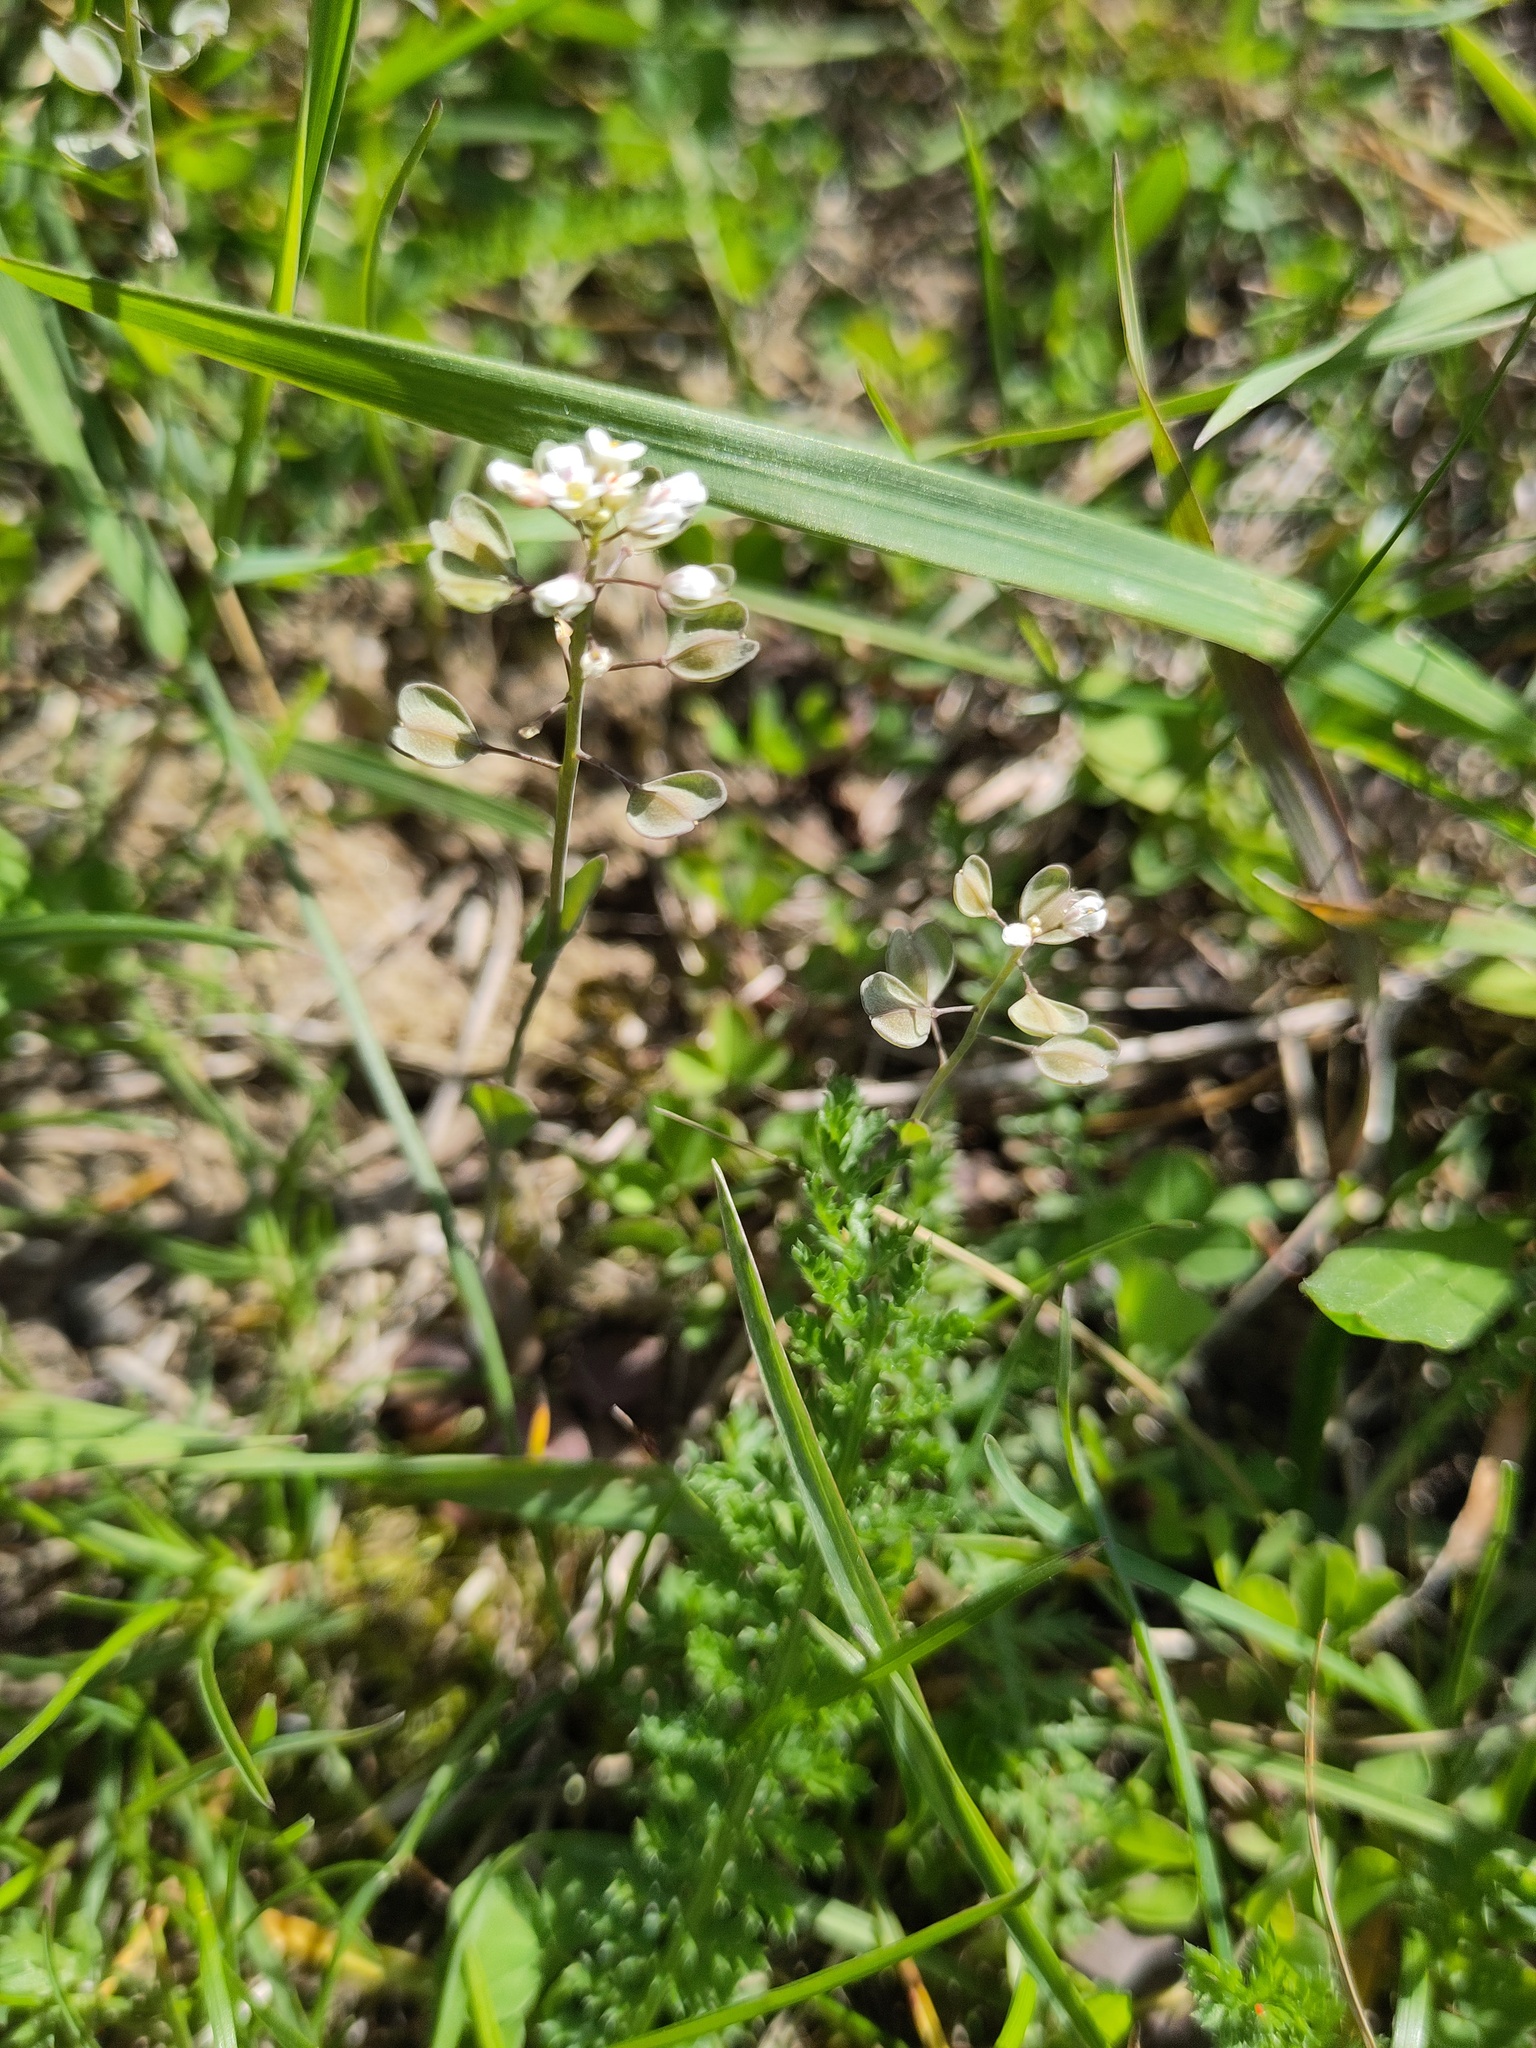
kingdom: Plantae
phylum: Tracheophyta
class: Magnoliopsida
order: Brassicales
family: Brassicaceae
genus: Noccaea
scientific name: Noccaea perfoliata
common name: Perfoliate pennycress
